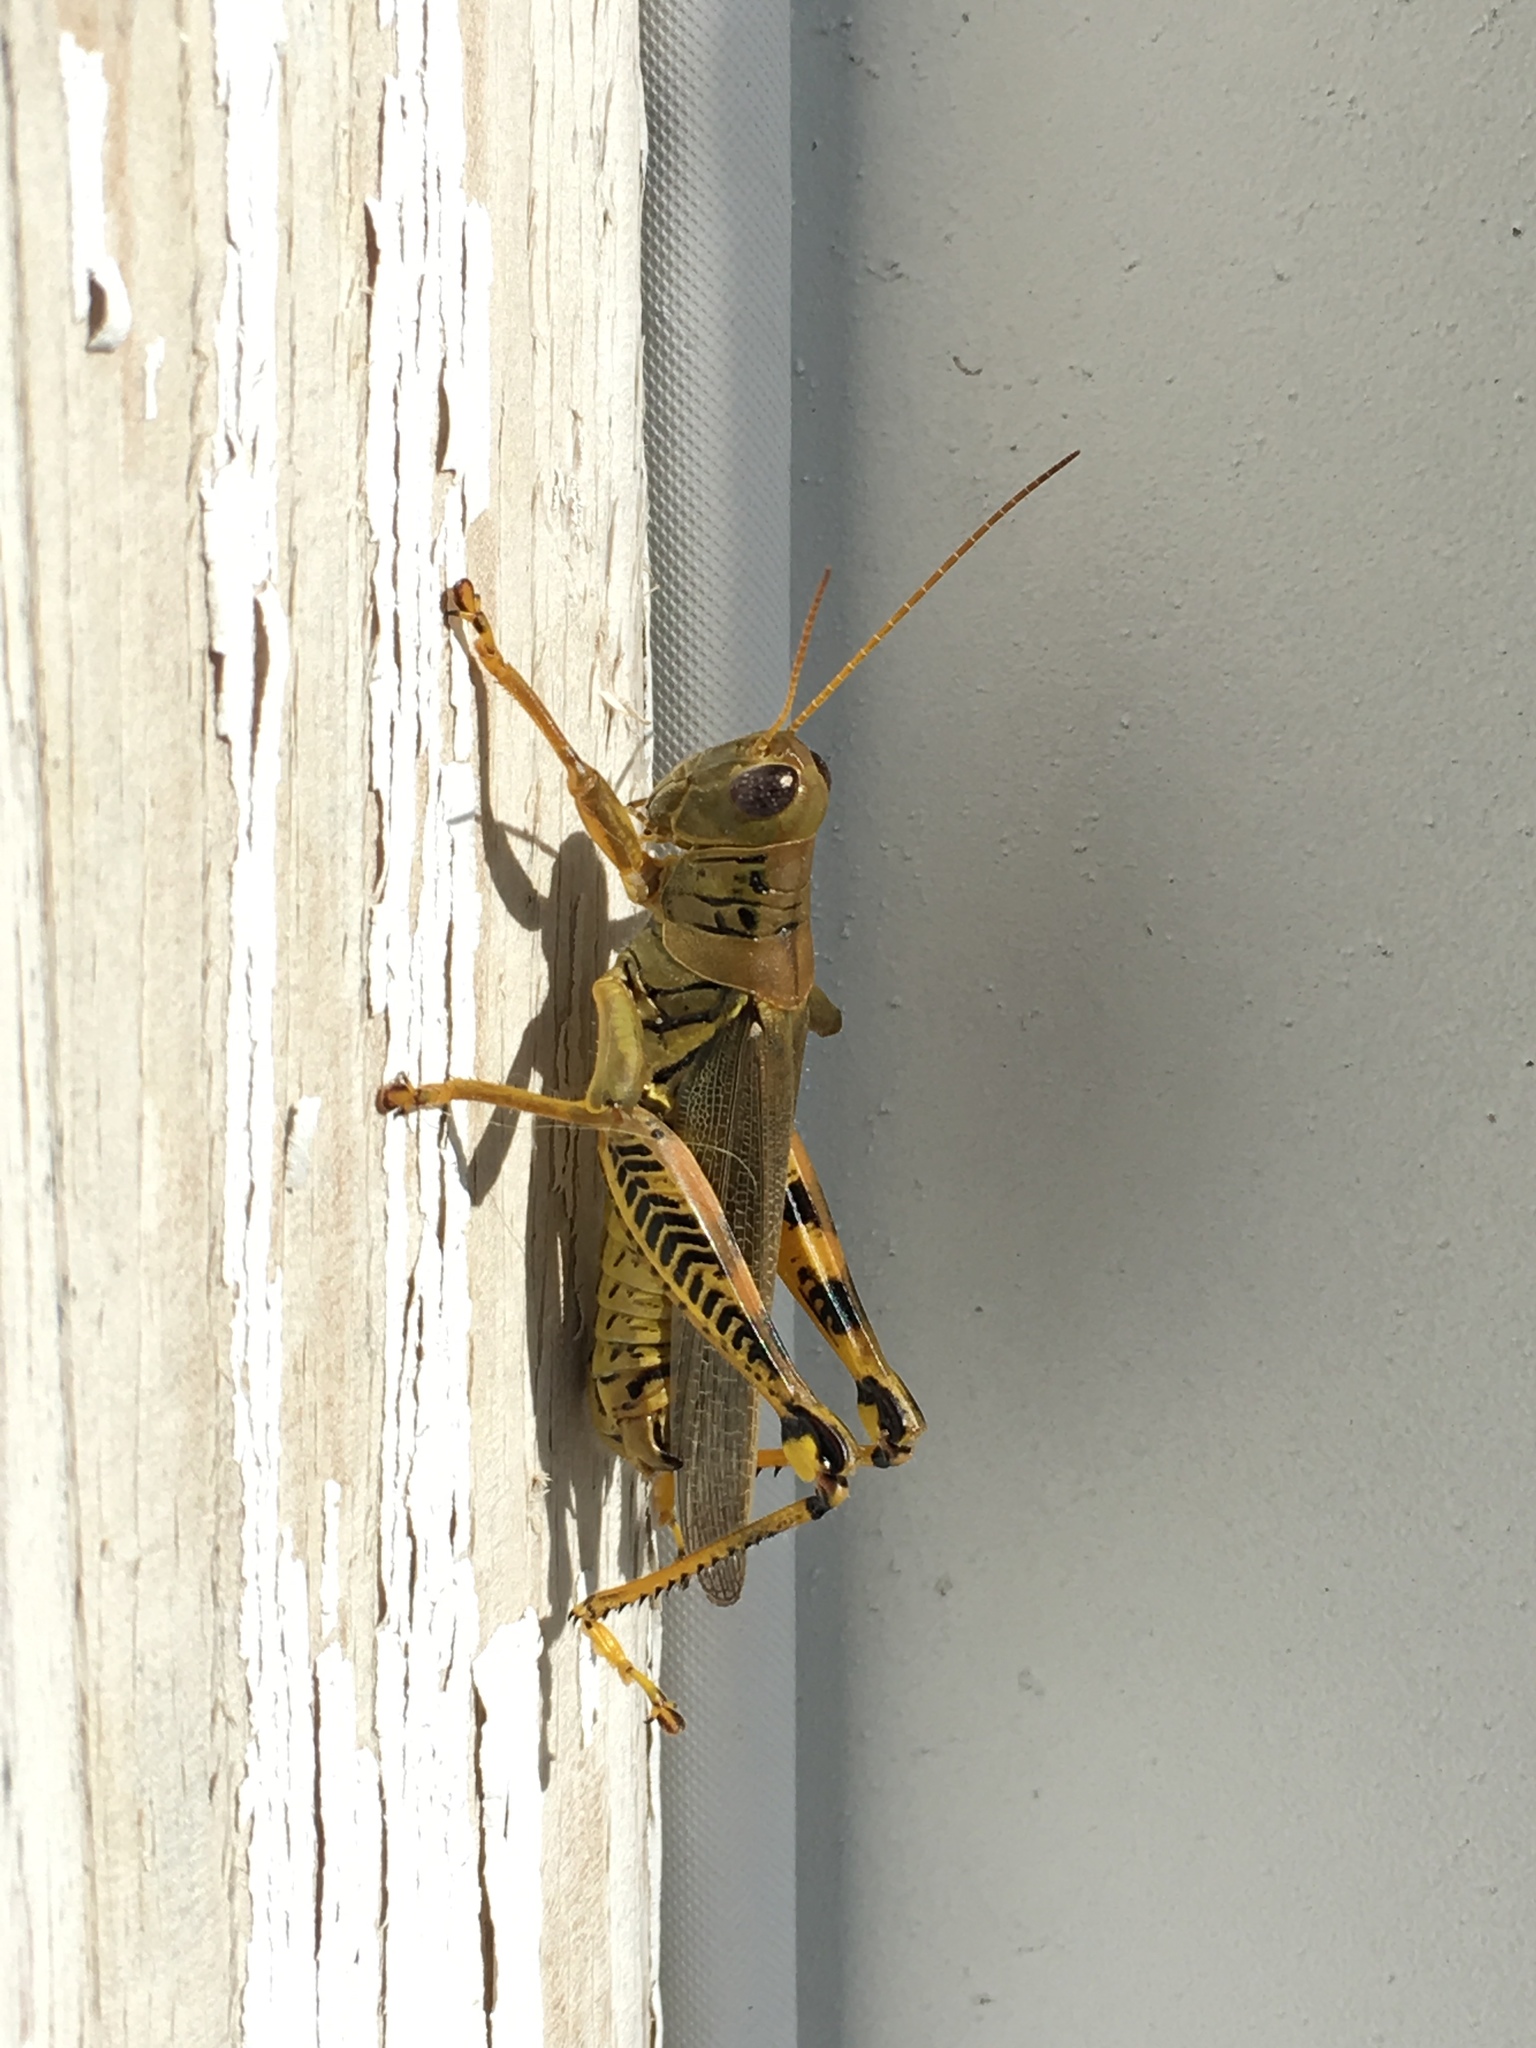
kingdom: Animalia
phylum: Arthropoda
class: Insecta
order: Orthoptera
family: Acrididae
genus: Melanoplus
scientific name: Melanoplus differentialis
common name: Differential grasshopper
